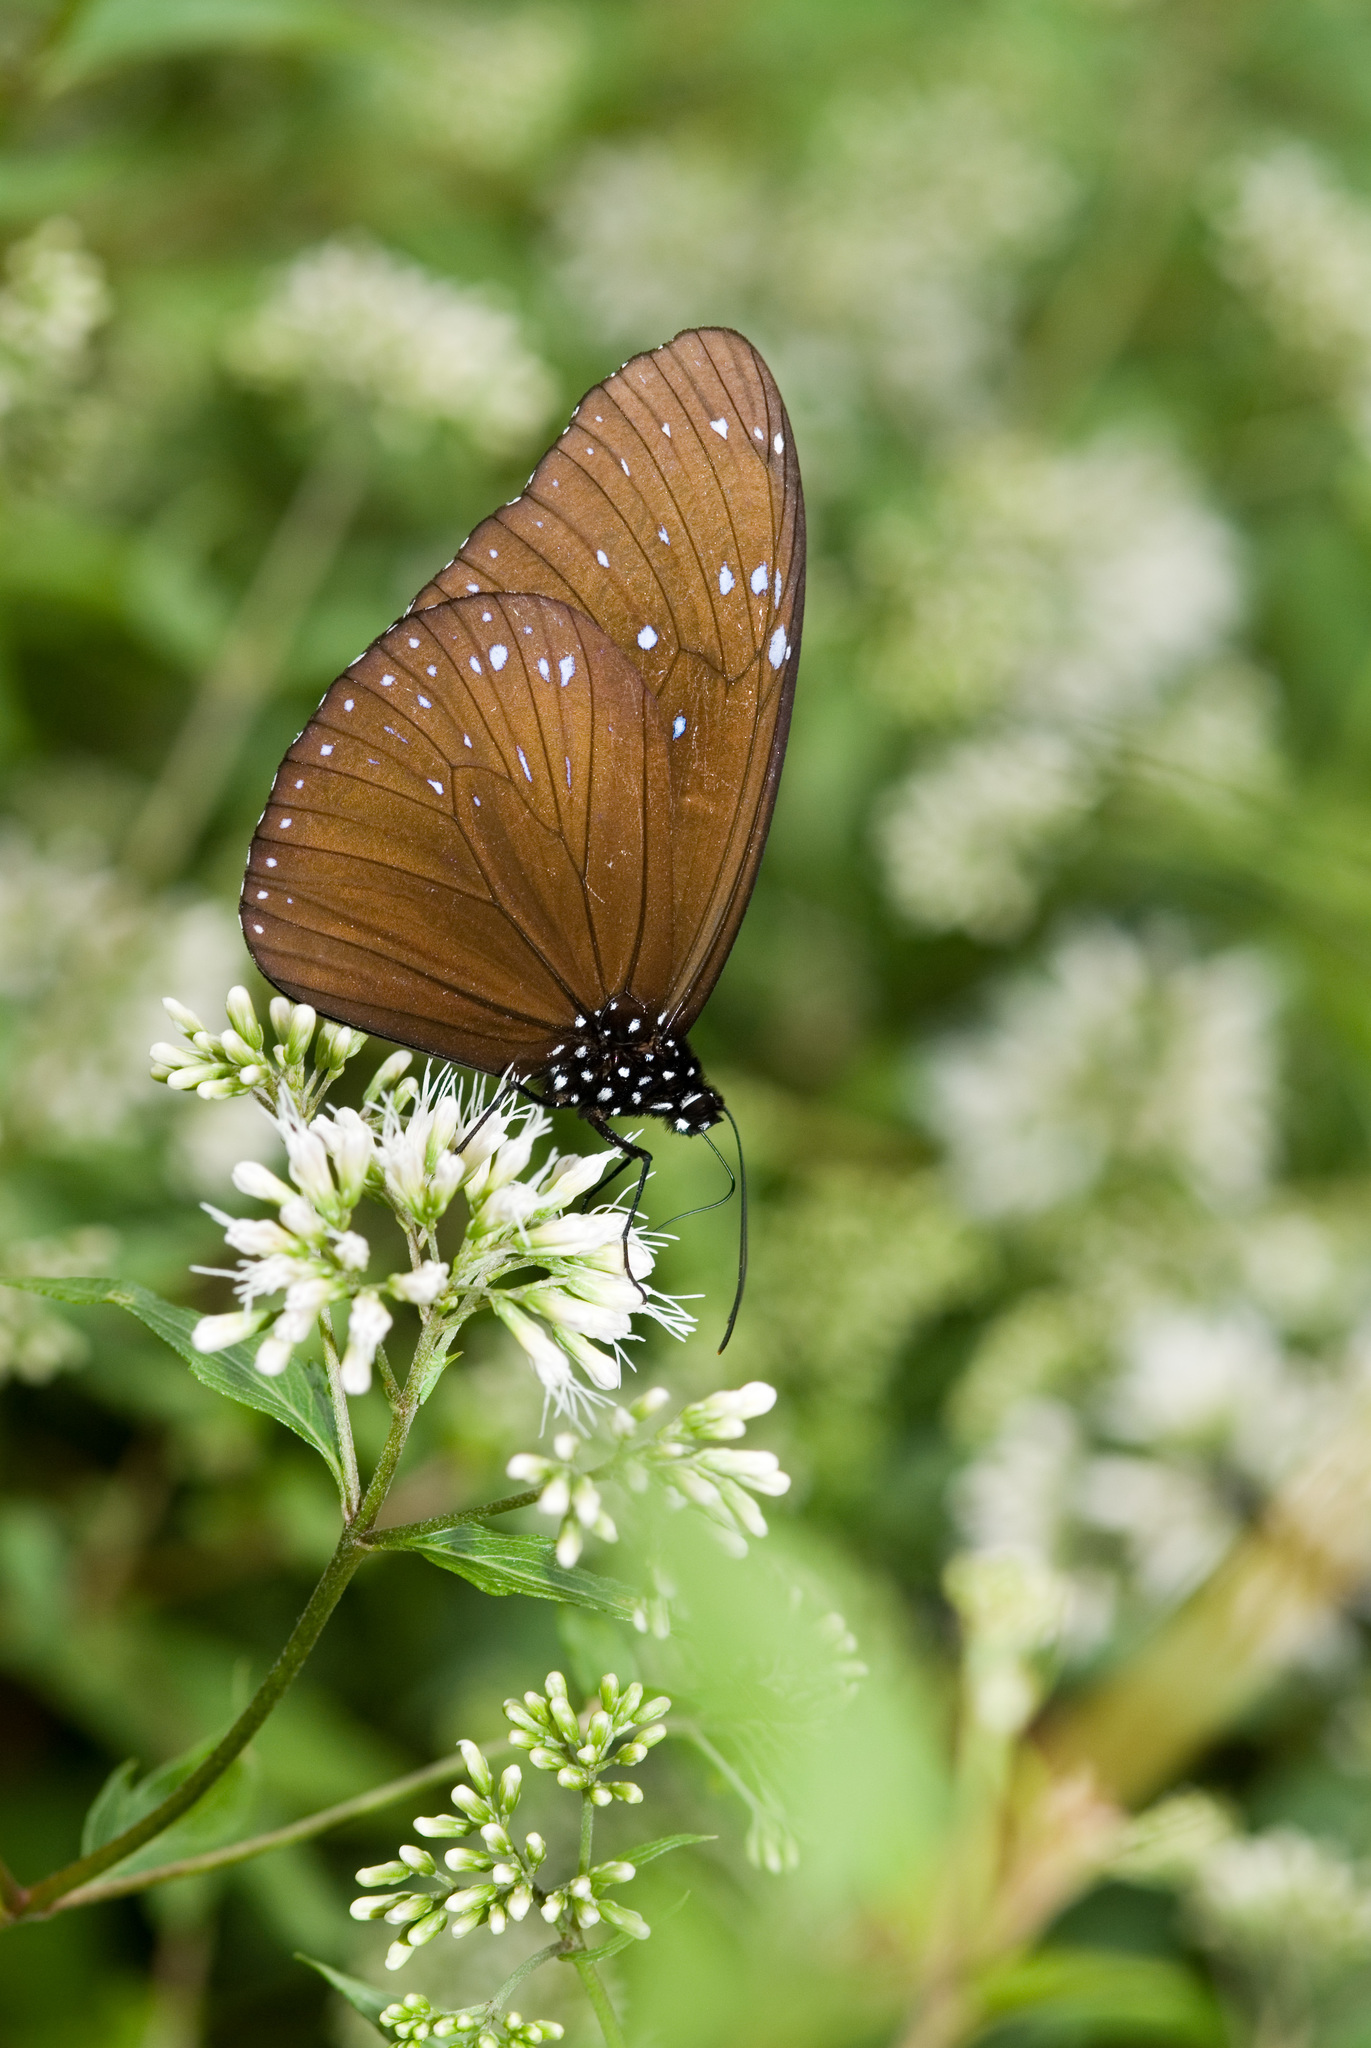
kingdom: Animalia
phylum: Arthropoda
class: Insecta
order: Lepidoptera
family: Nymphalidae
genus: Euploea
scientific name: Euploea mulciber
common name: Striped blue crow butterfly
